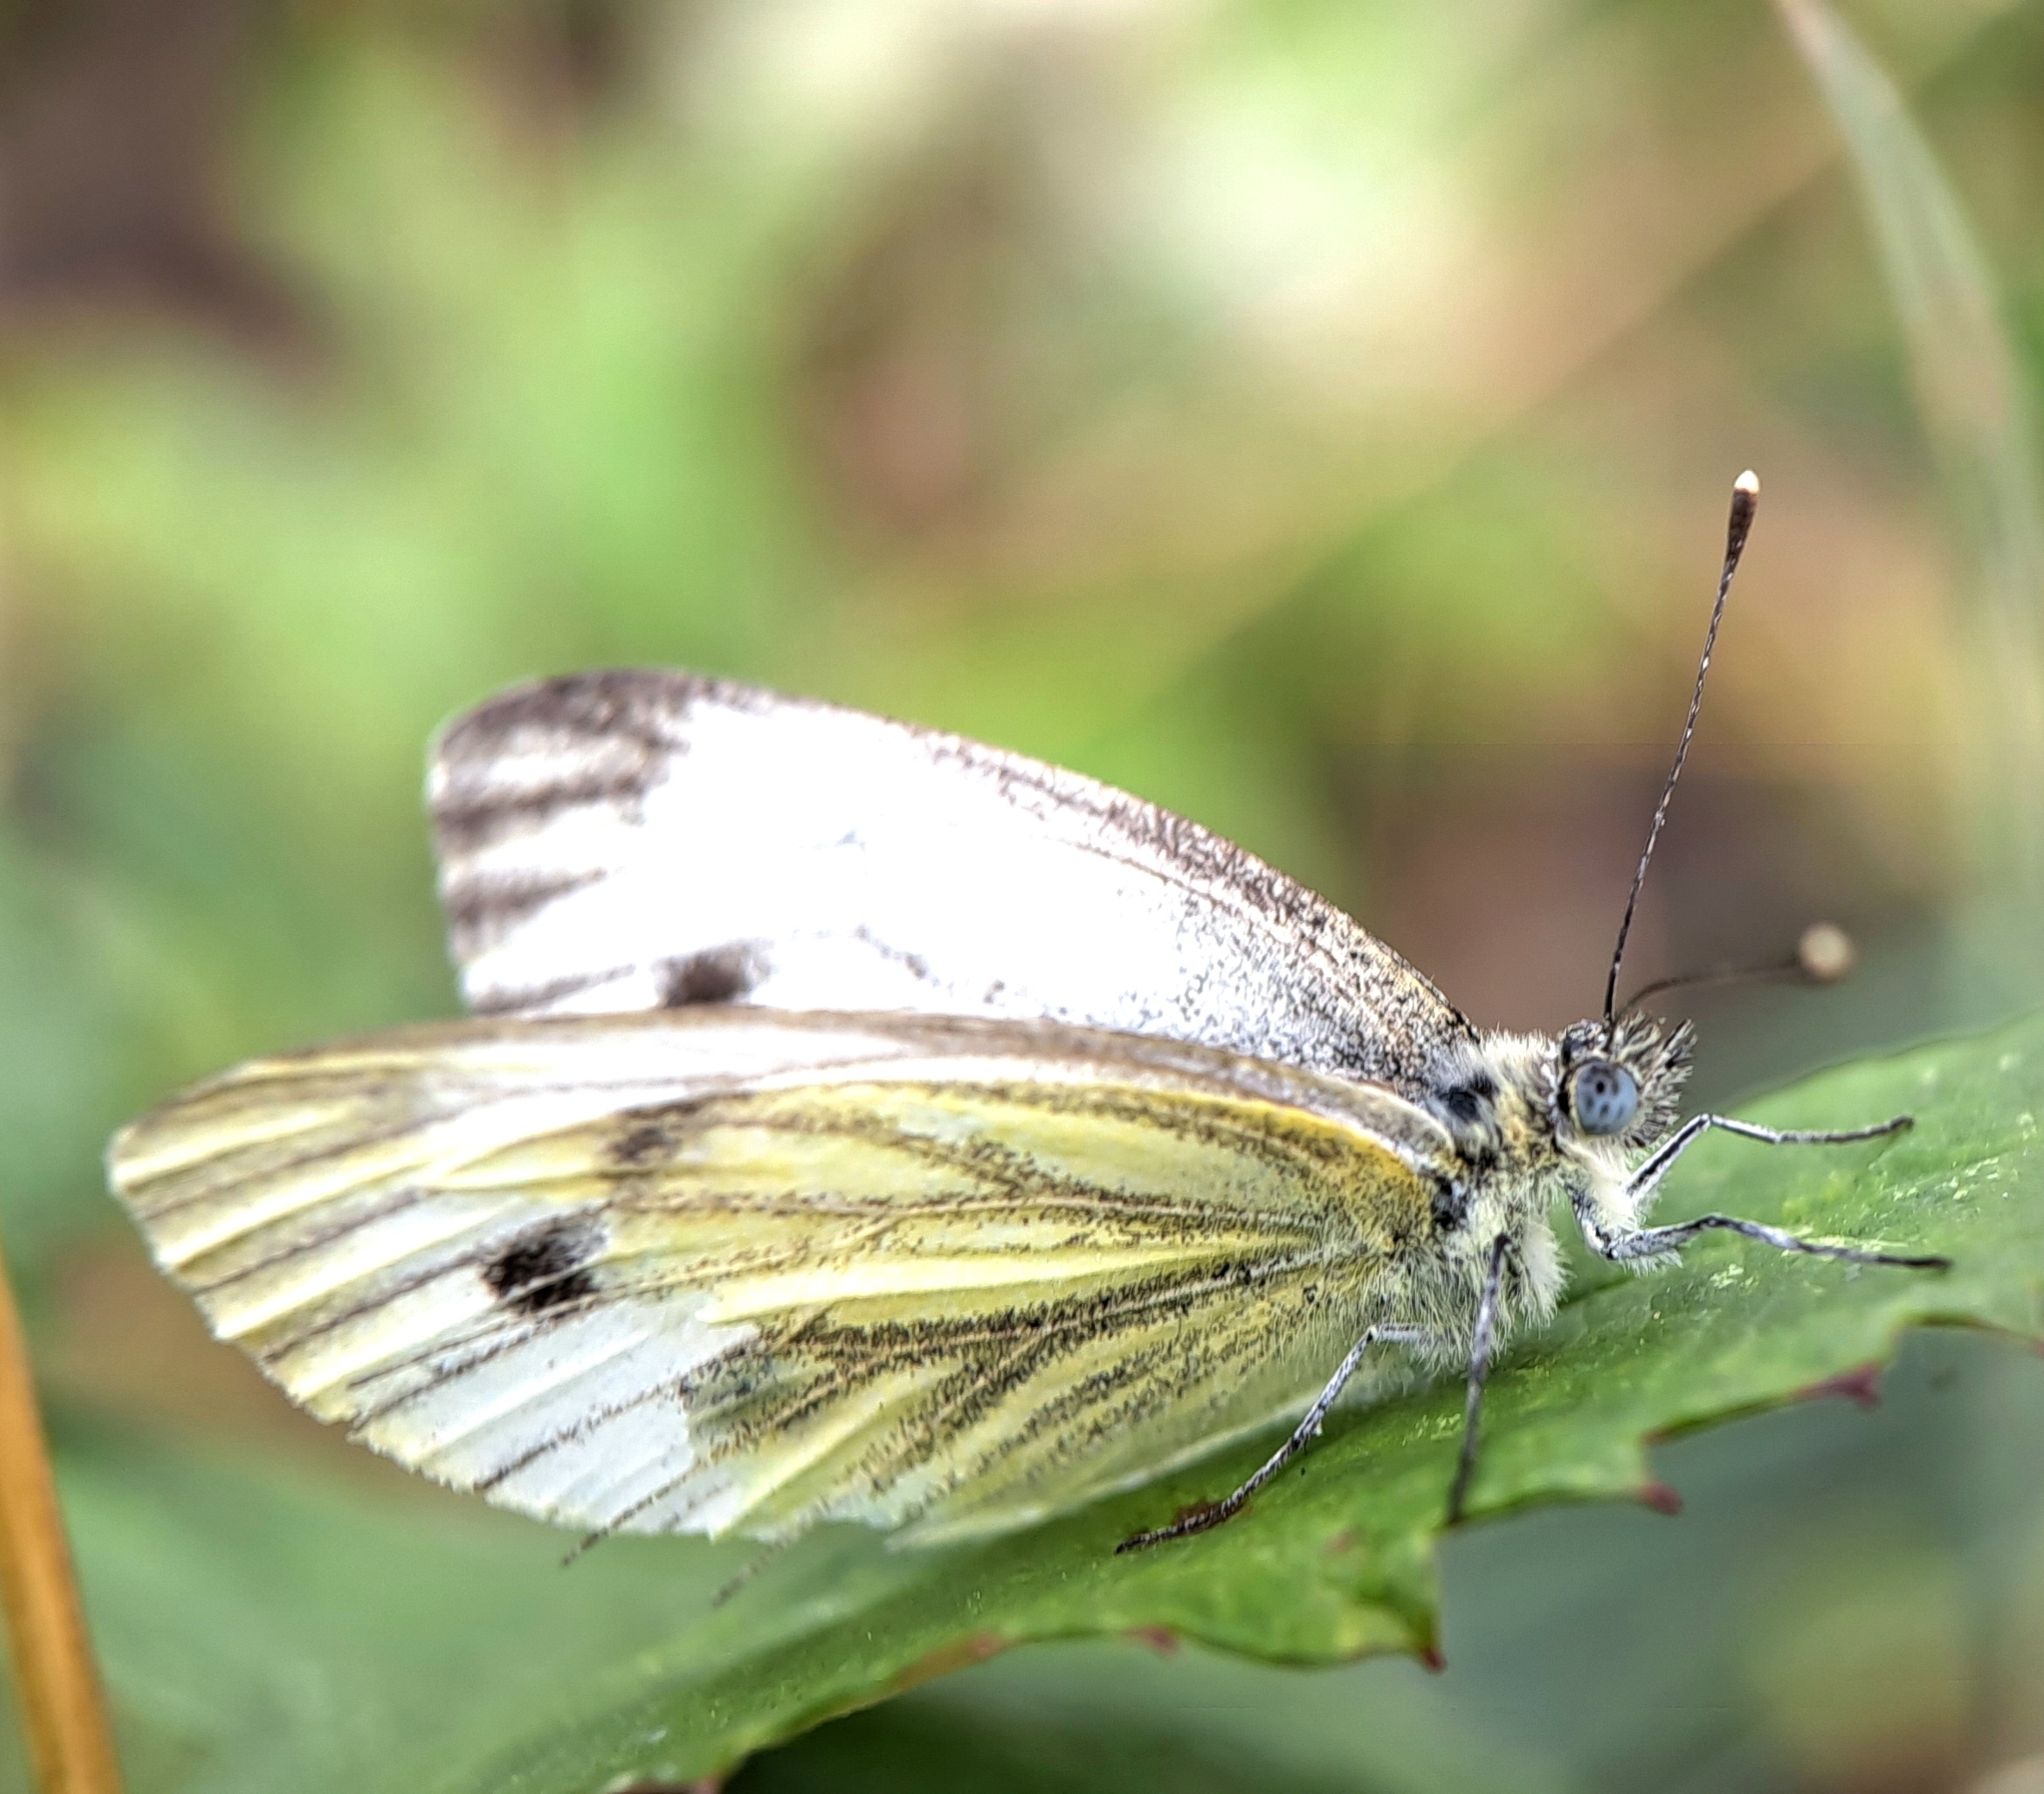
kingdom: Animalia
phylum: Arthropoda
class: Insecta
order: Lepidoptera
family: Pieridae
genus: Pieris
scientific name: Pieris napi
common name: Green-veined white
